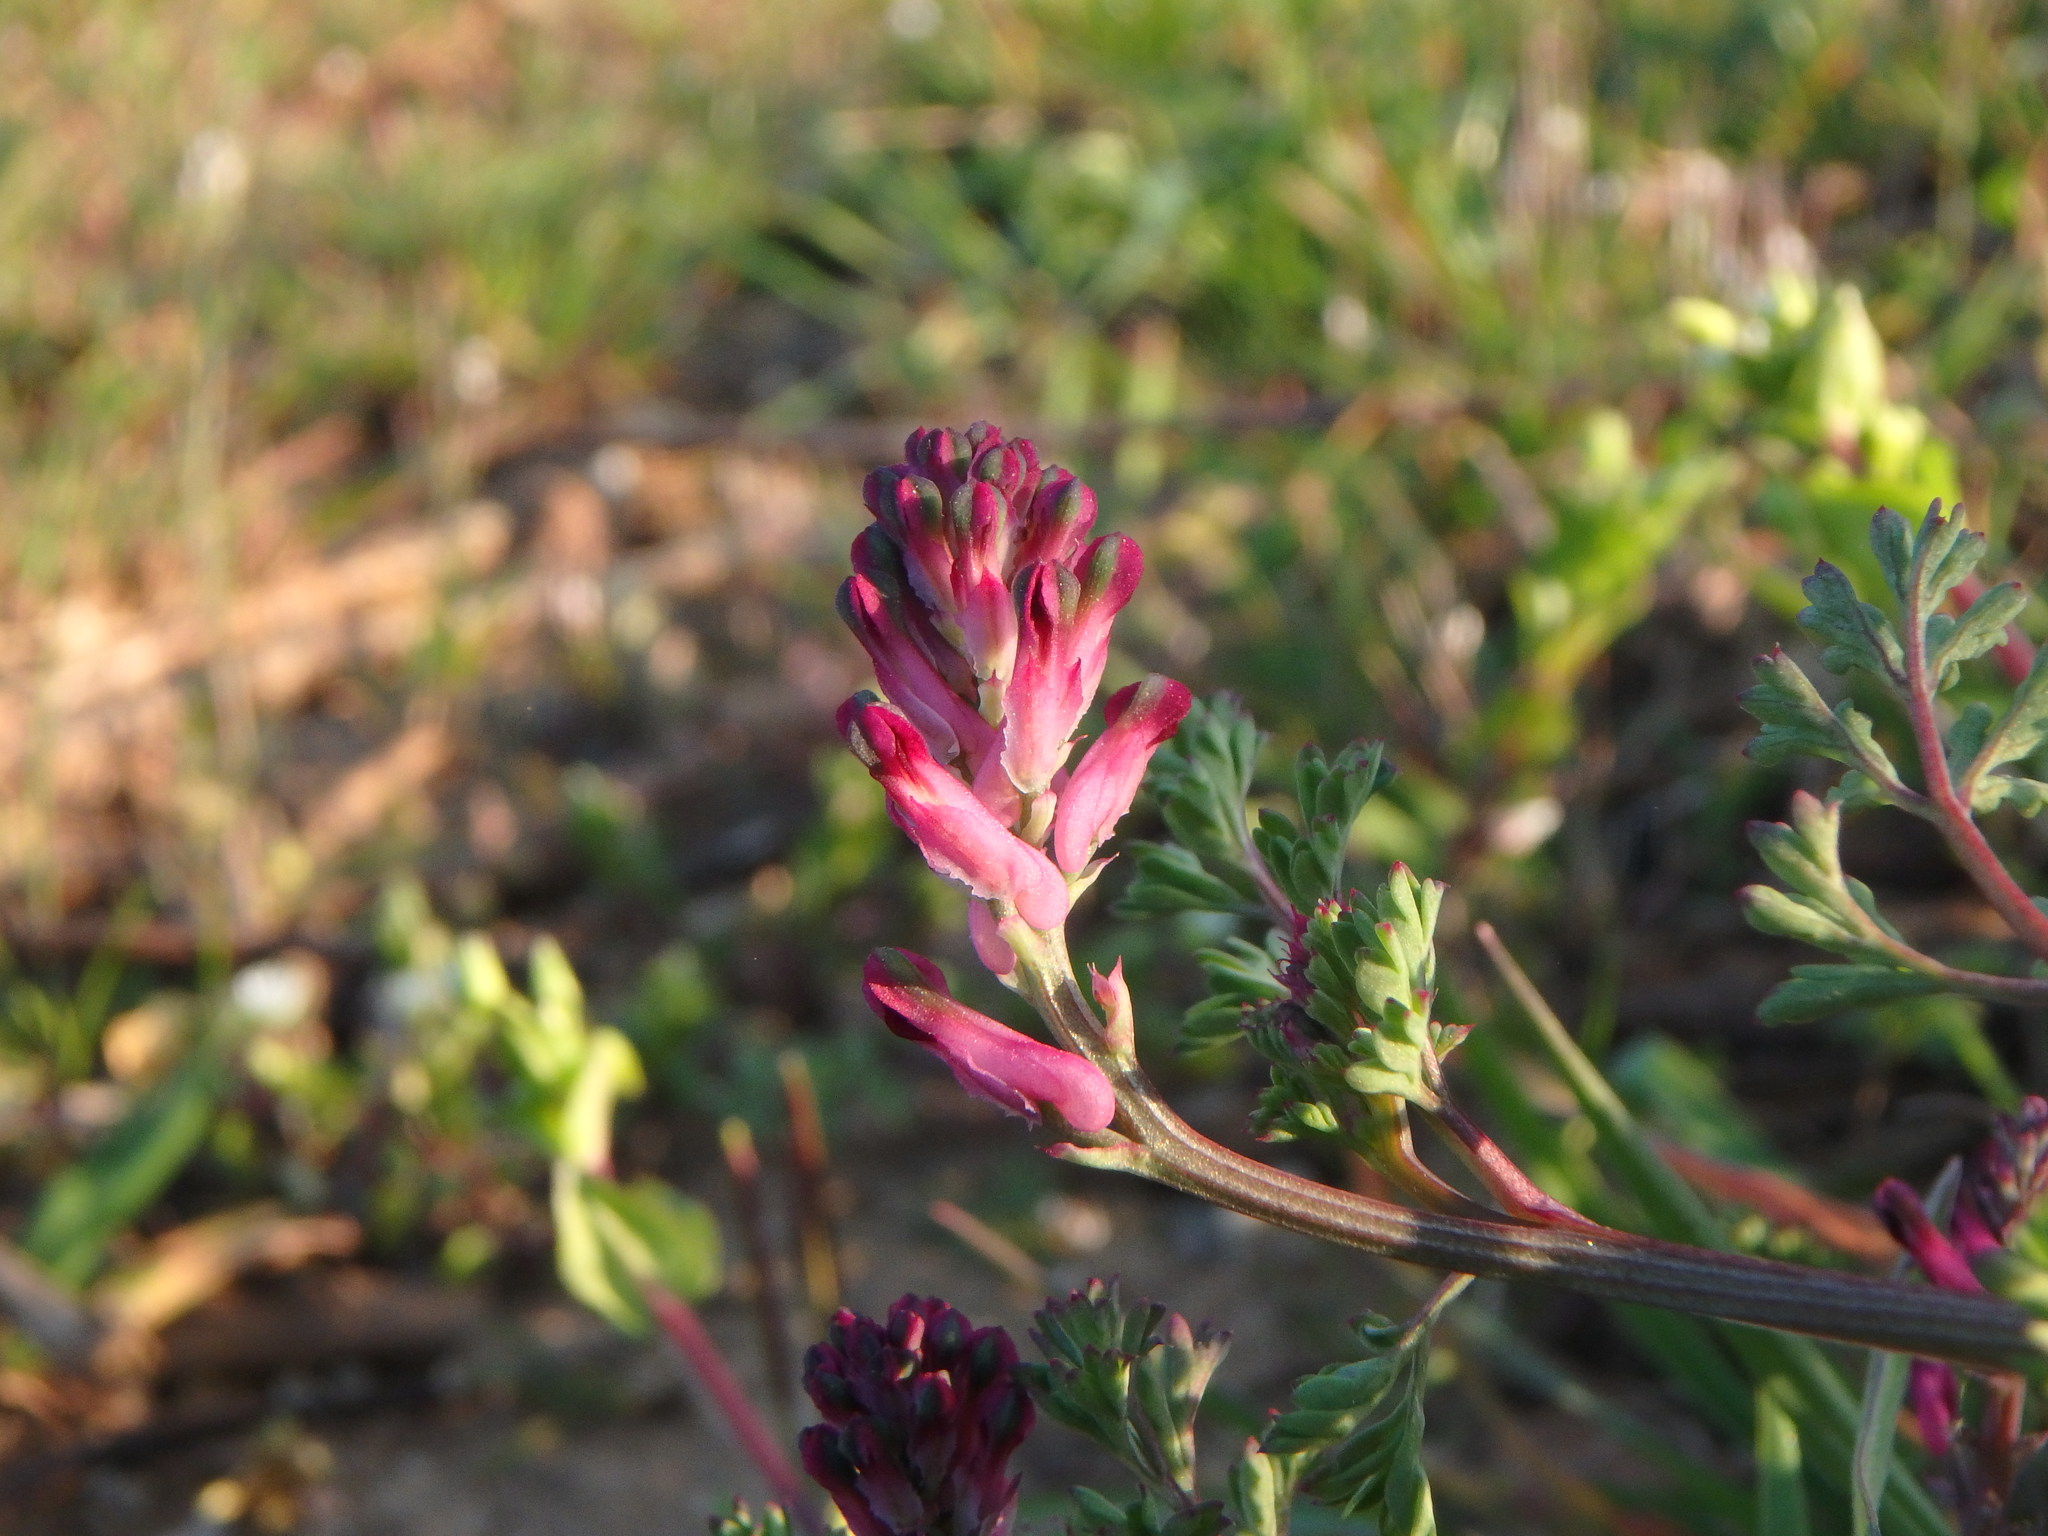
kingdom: Plantae
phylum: Tracheophyta
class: Magnoliopsida
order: Ranunculales
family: Papaveraceae
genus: Fumaria
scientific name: Fumaria officinalis
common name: Common fumitory
